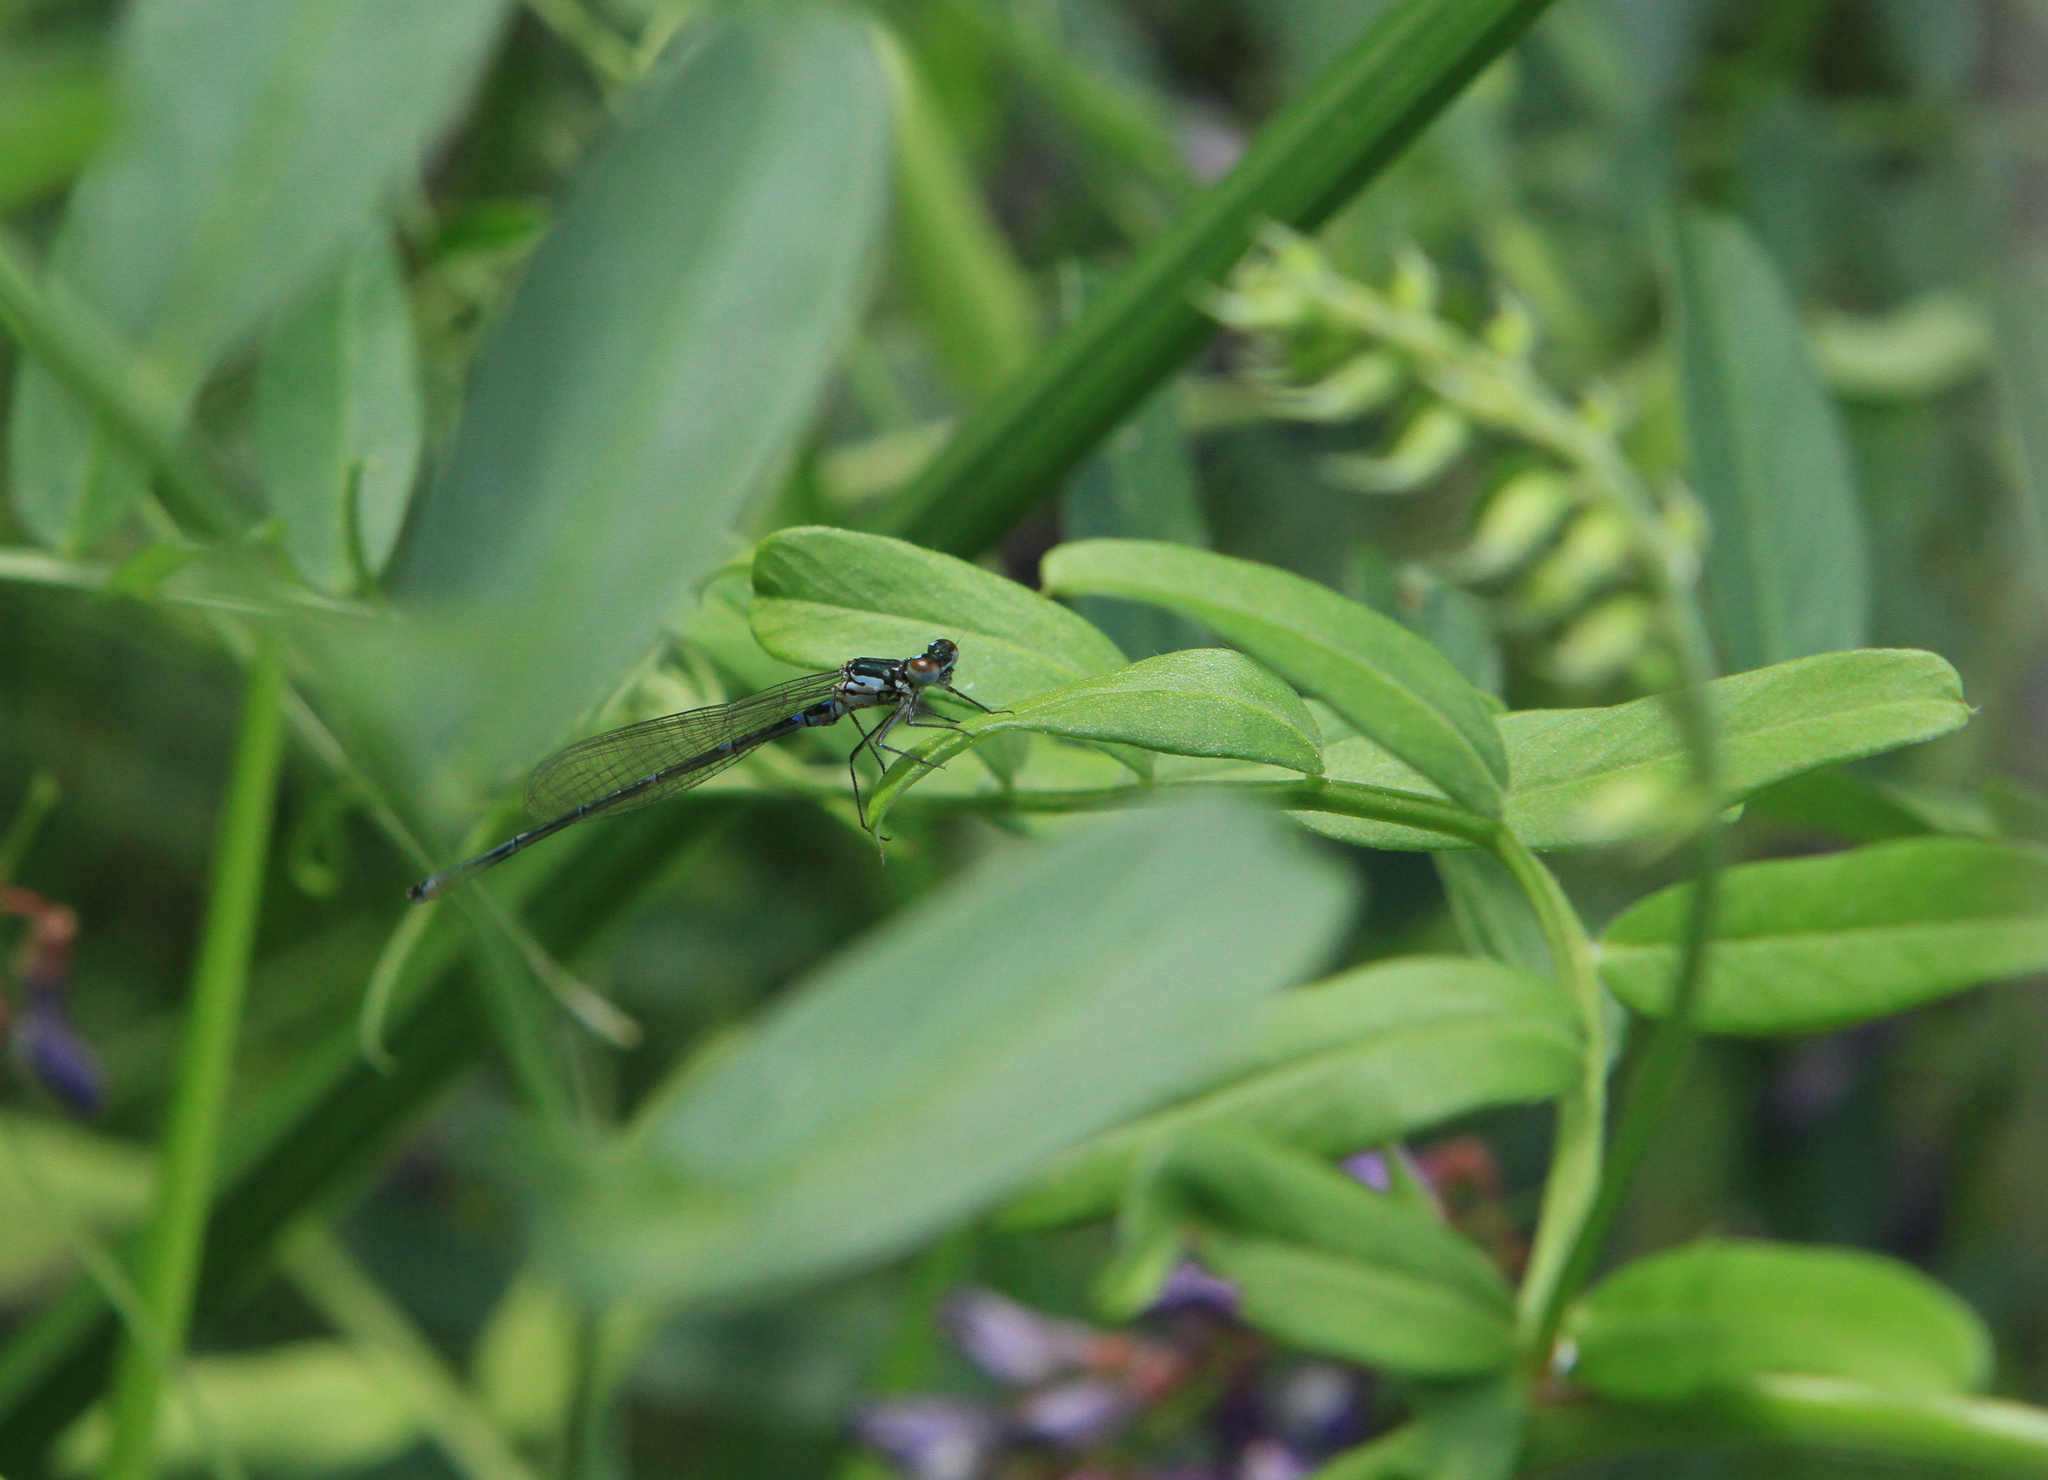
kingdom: Animalia
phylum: Arthropoda
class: Insecta
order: Odonata
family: Coenagrionidae
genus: Coenagrion
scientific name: Coenagrion pulchellum
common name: Variable bluet
